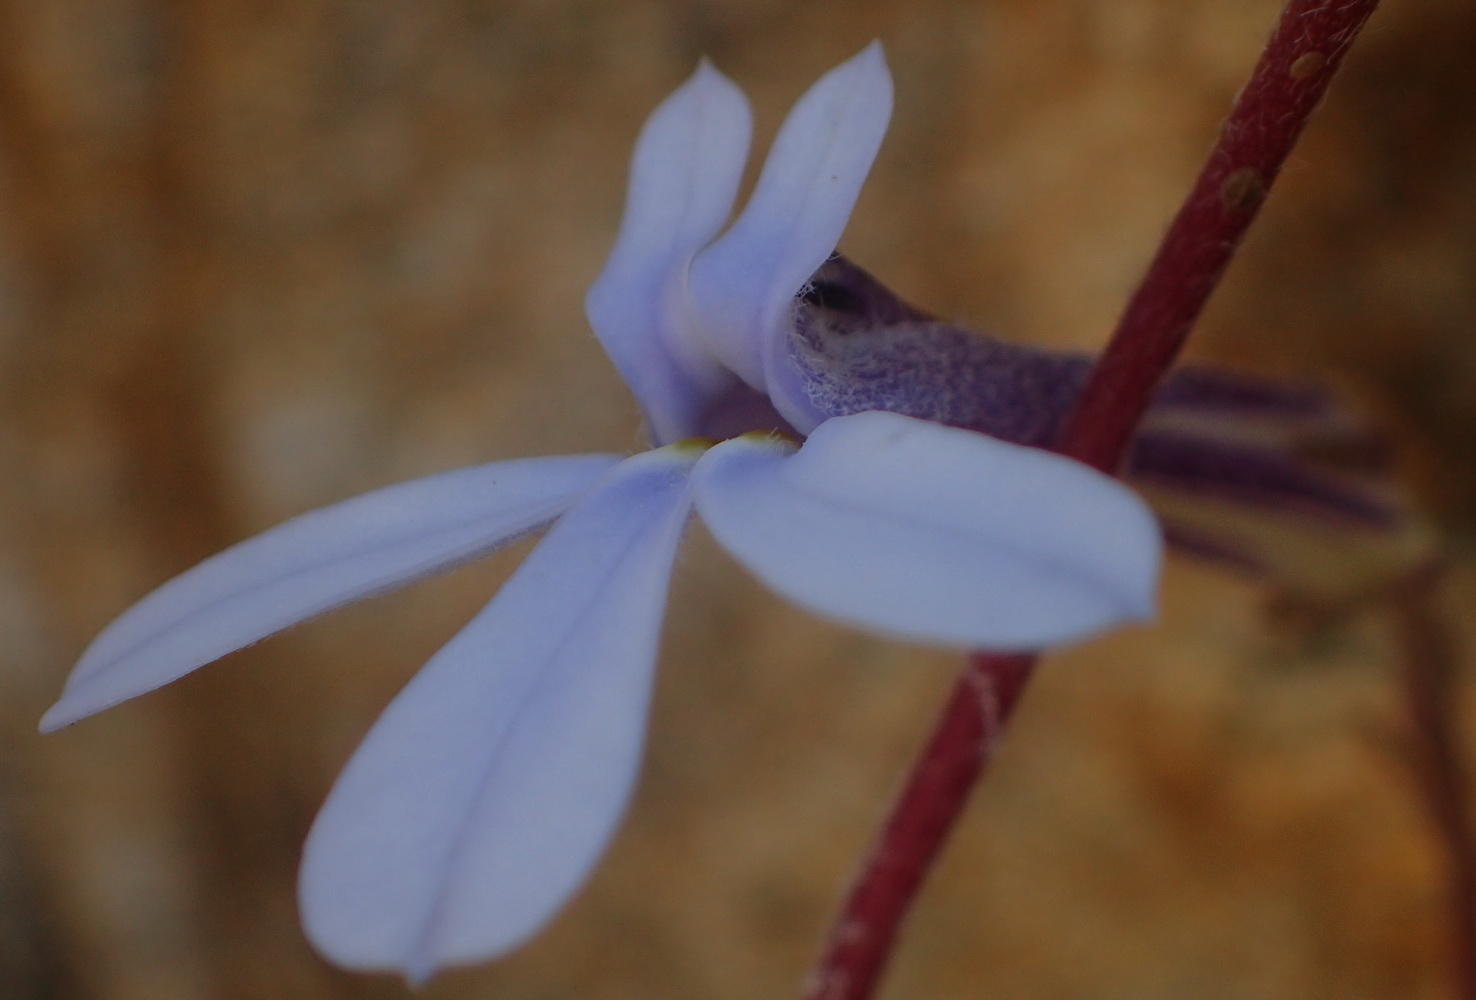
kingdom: Plantae
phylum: Tracheophyta
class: Magnoliopsida
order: Asterales
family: Campanulaceae
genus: Lobelia
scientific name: Lobelia dichroma
